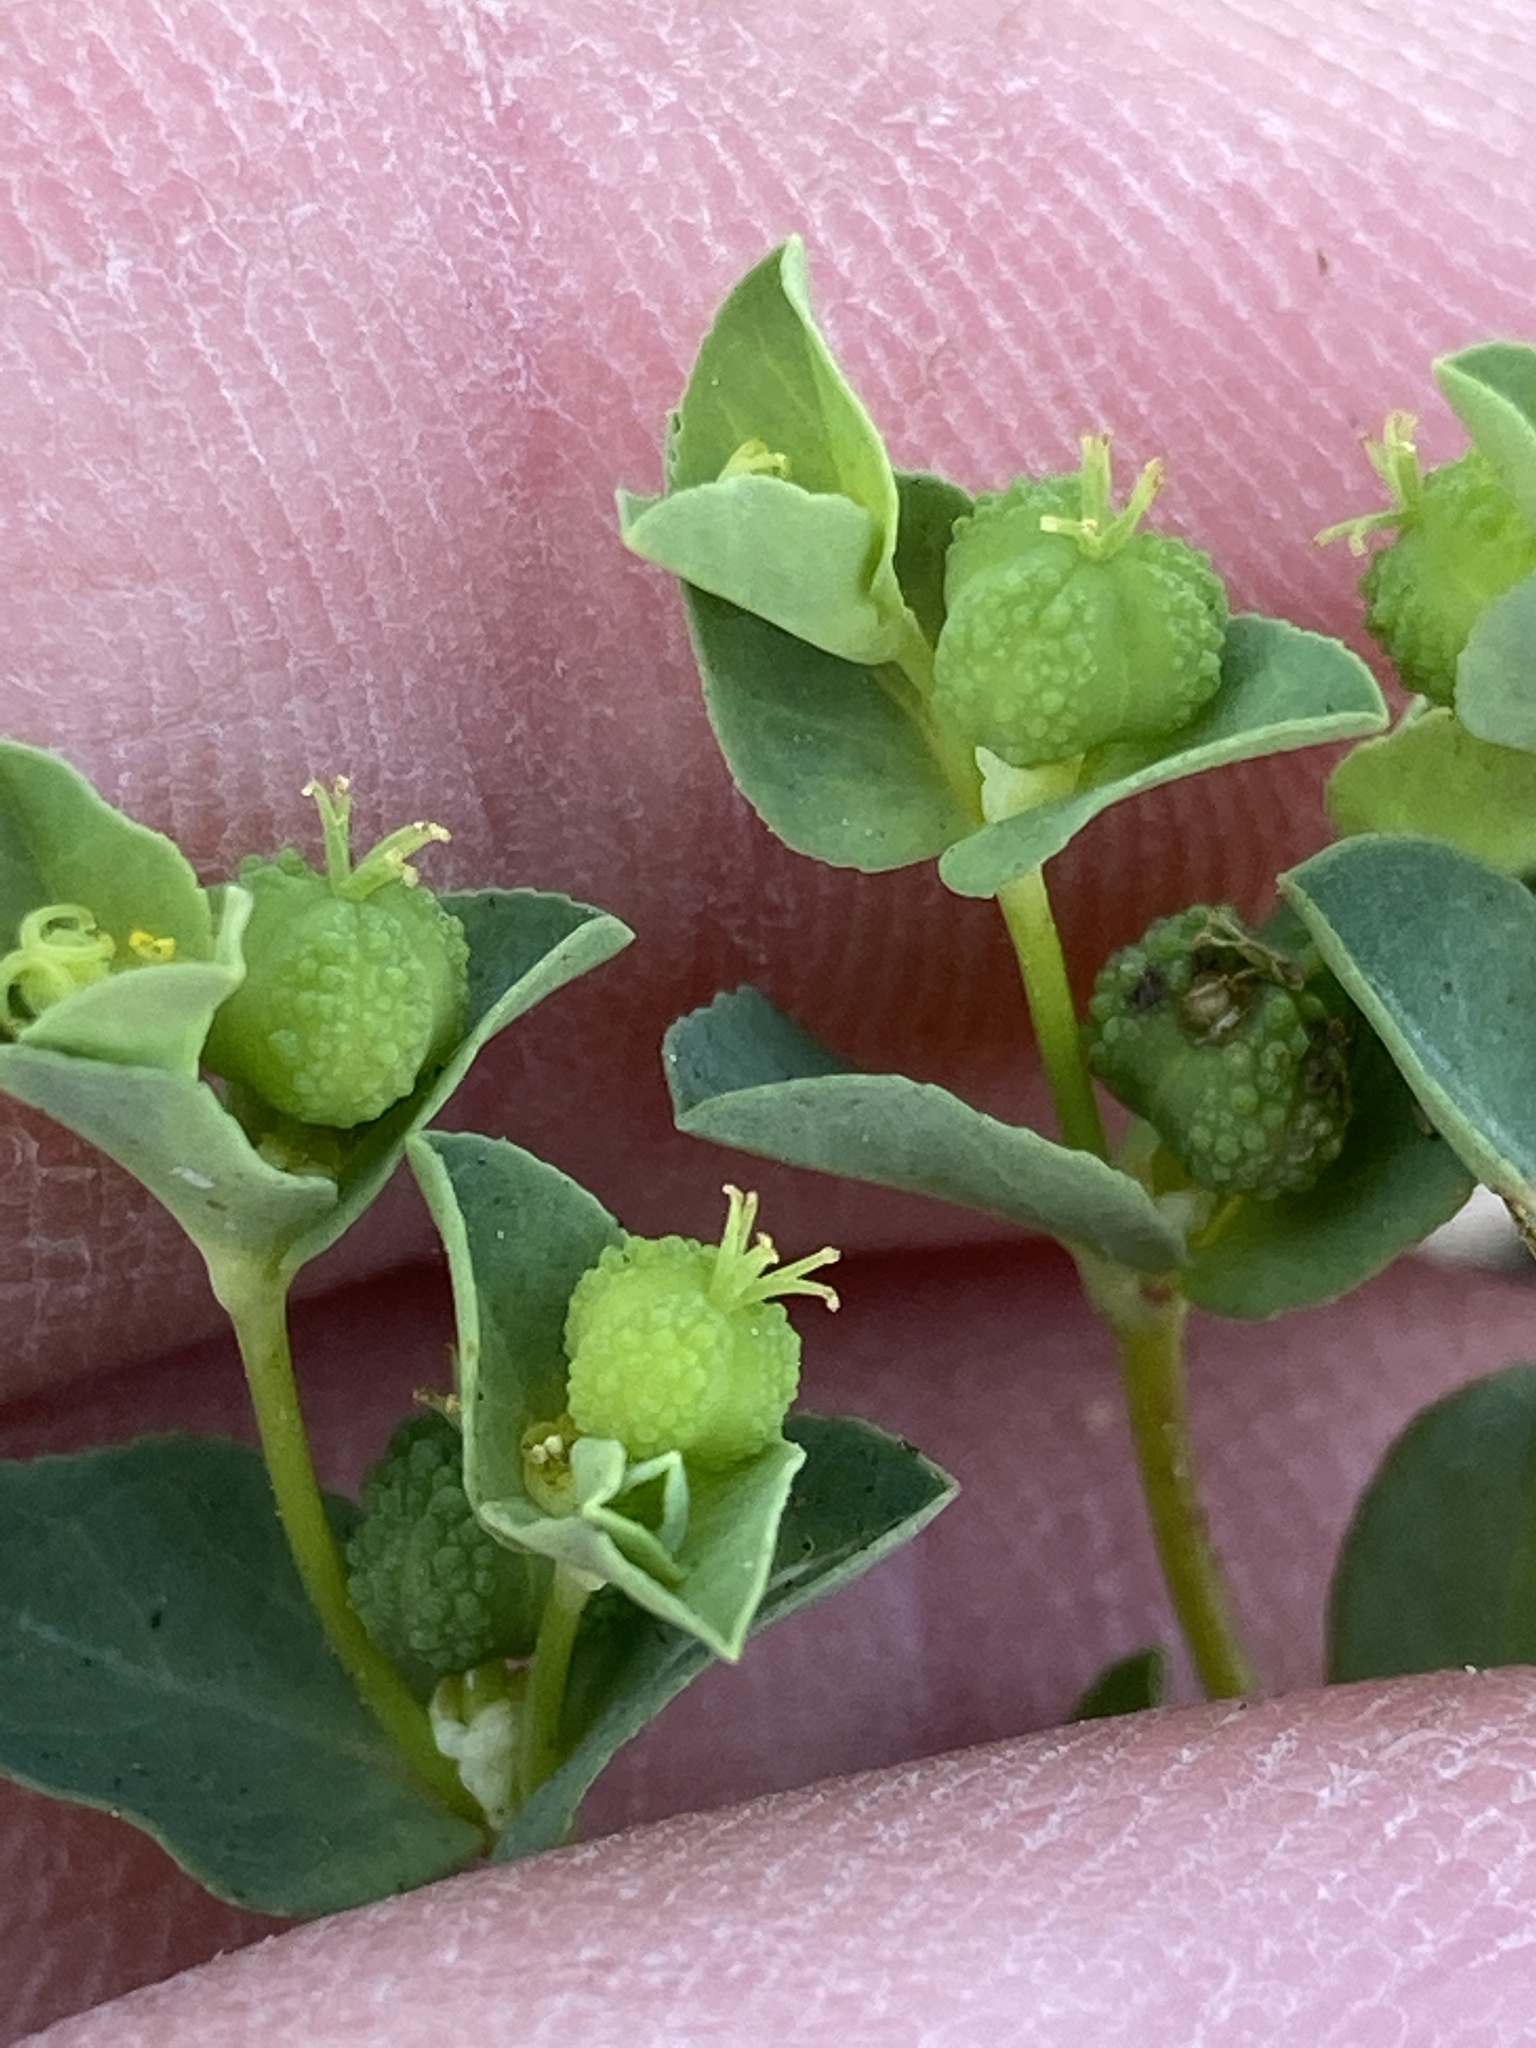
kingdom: Plantae
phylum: Tracheophyta
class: Magnoliopsida
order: Malpighiales
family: Euphorbiaceae
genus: Euphorbia
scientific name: Euphorbia spathulata
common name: Blunt spurge
